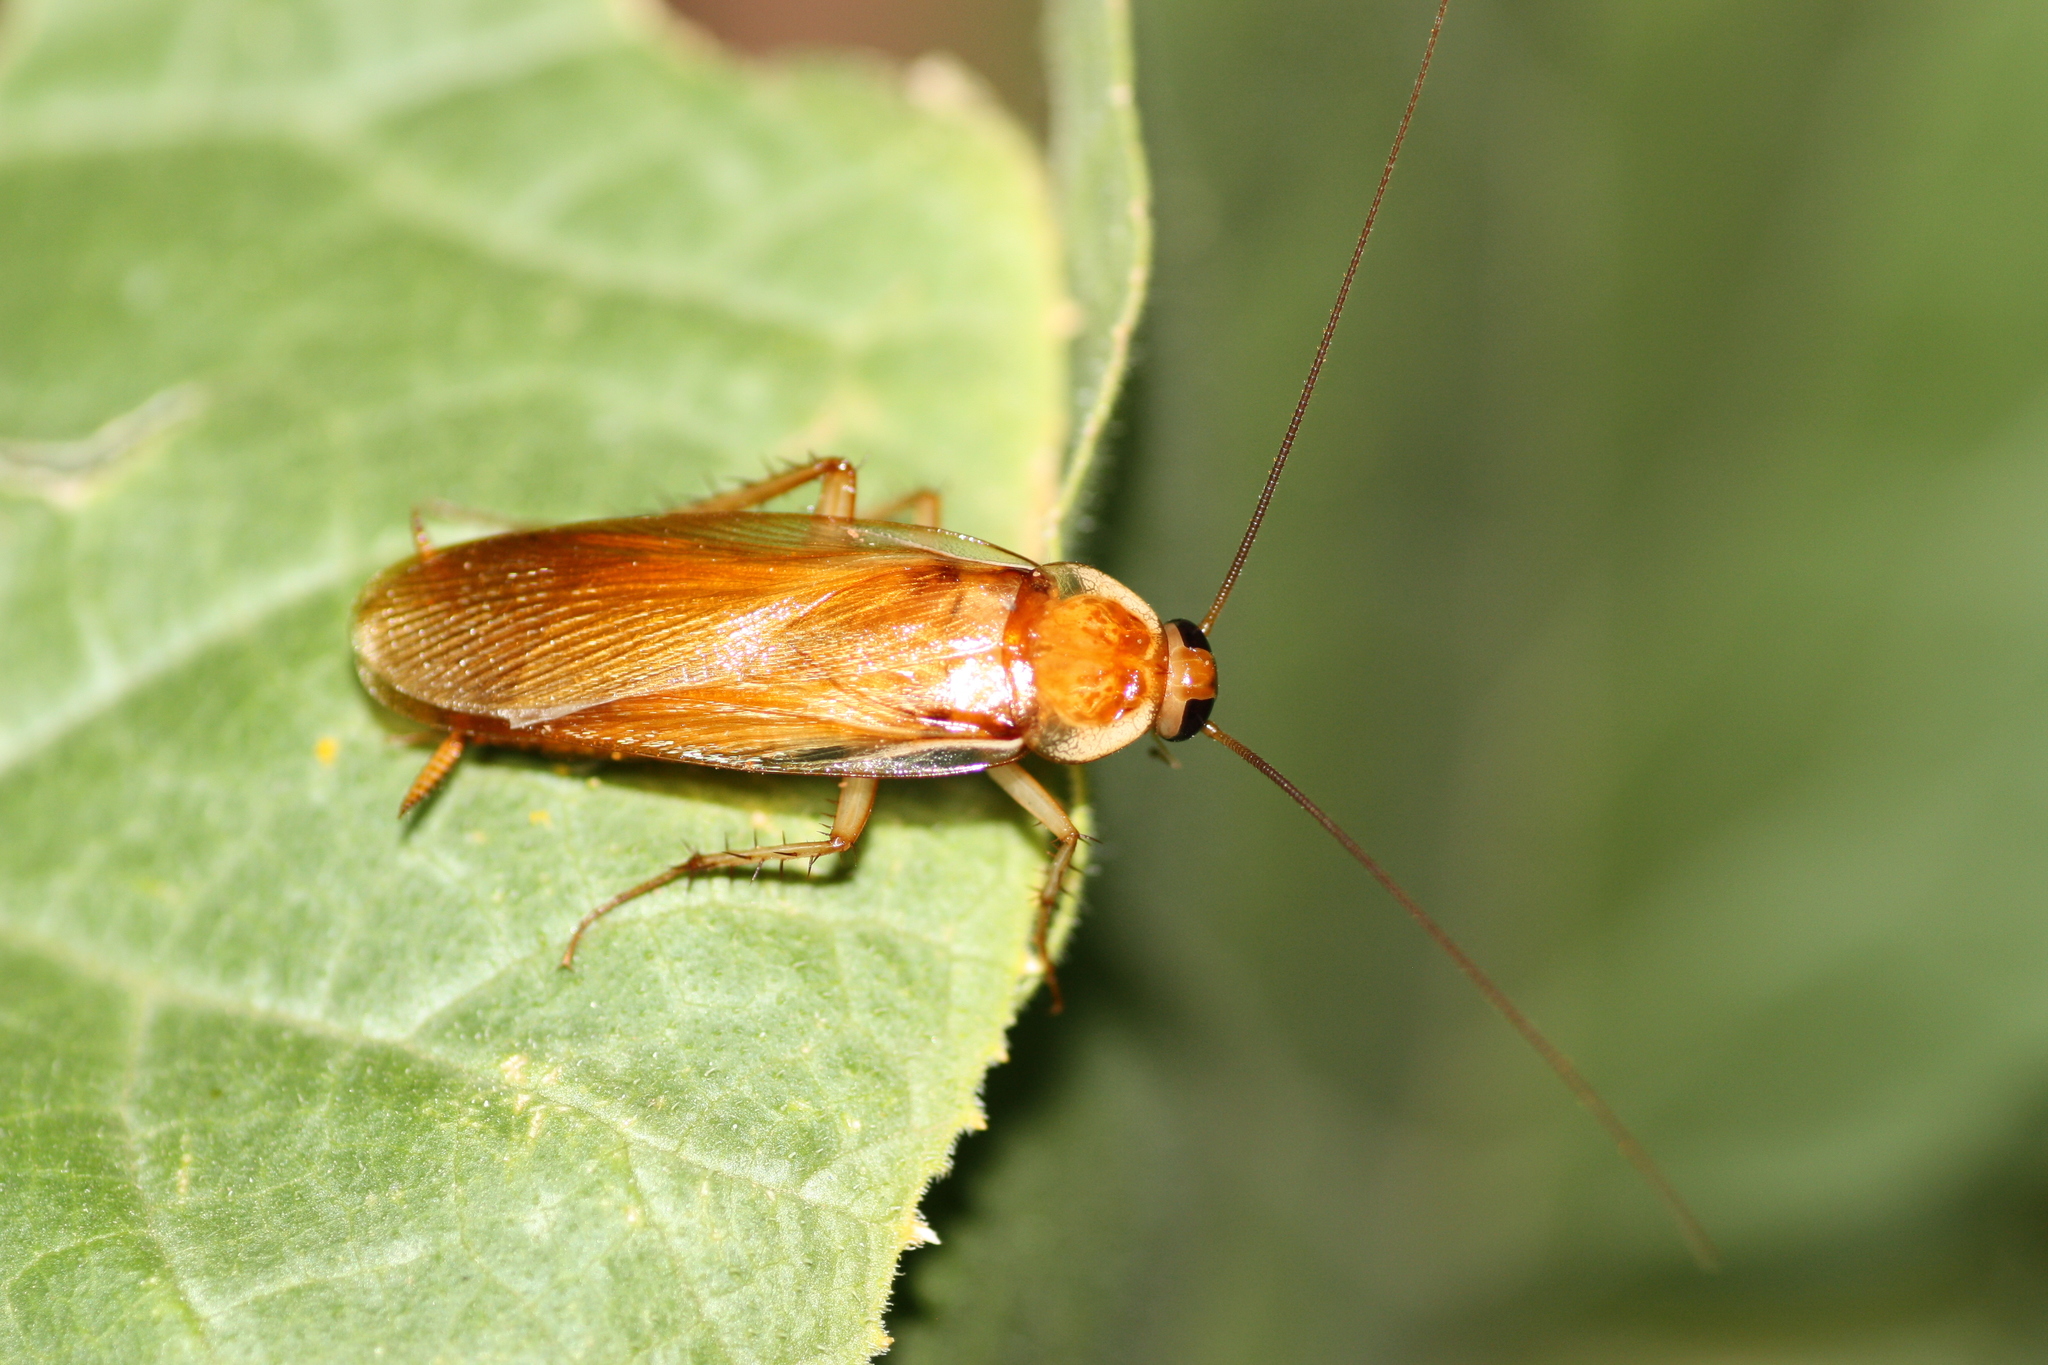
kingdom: Animalia
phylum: Arthropoda
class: Insecta
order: Blattodea
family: Blattidae
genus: Periplaneta
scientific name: Periplaneta lateralis
